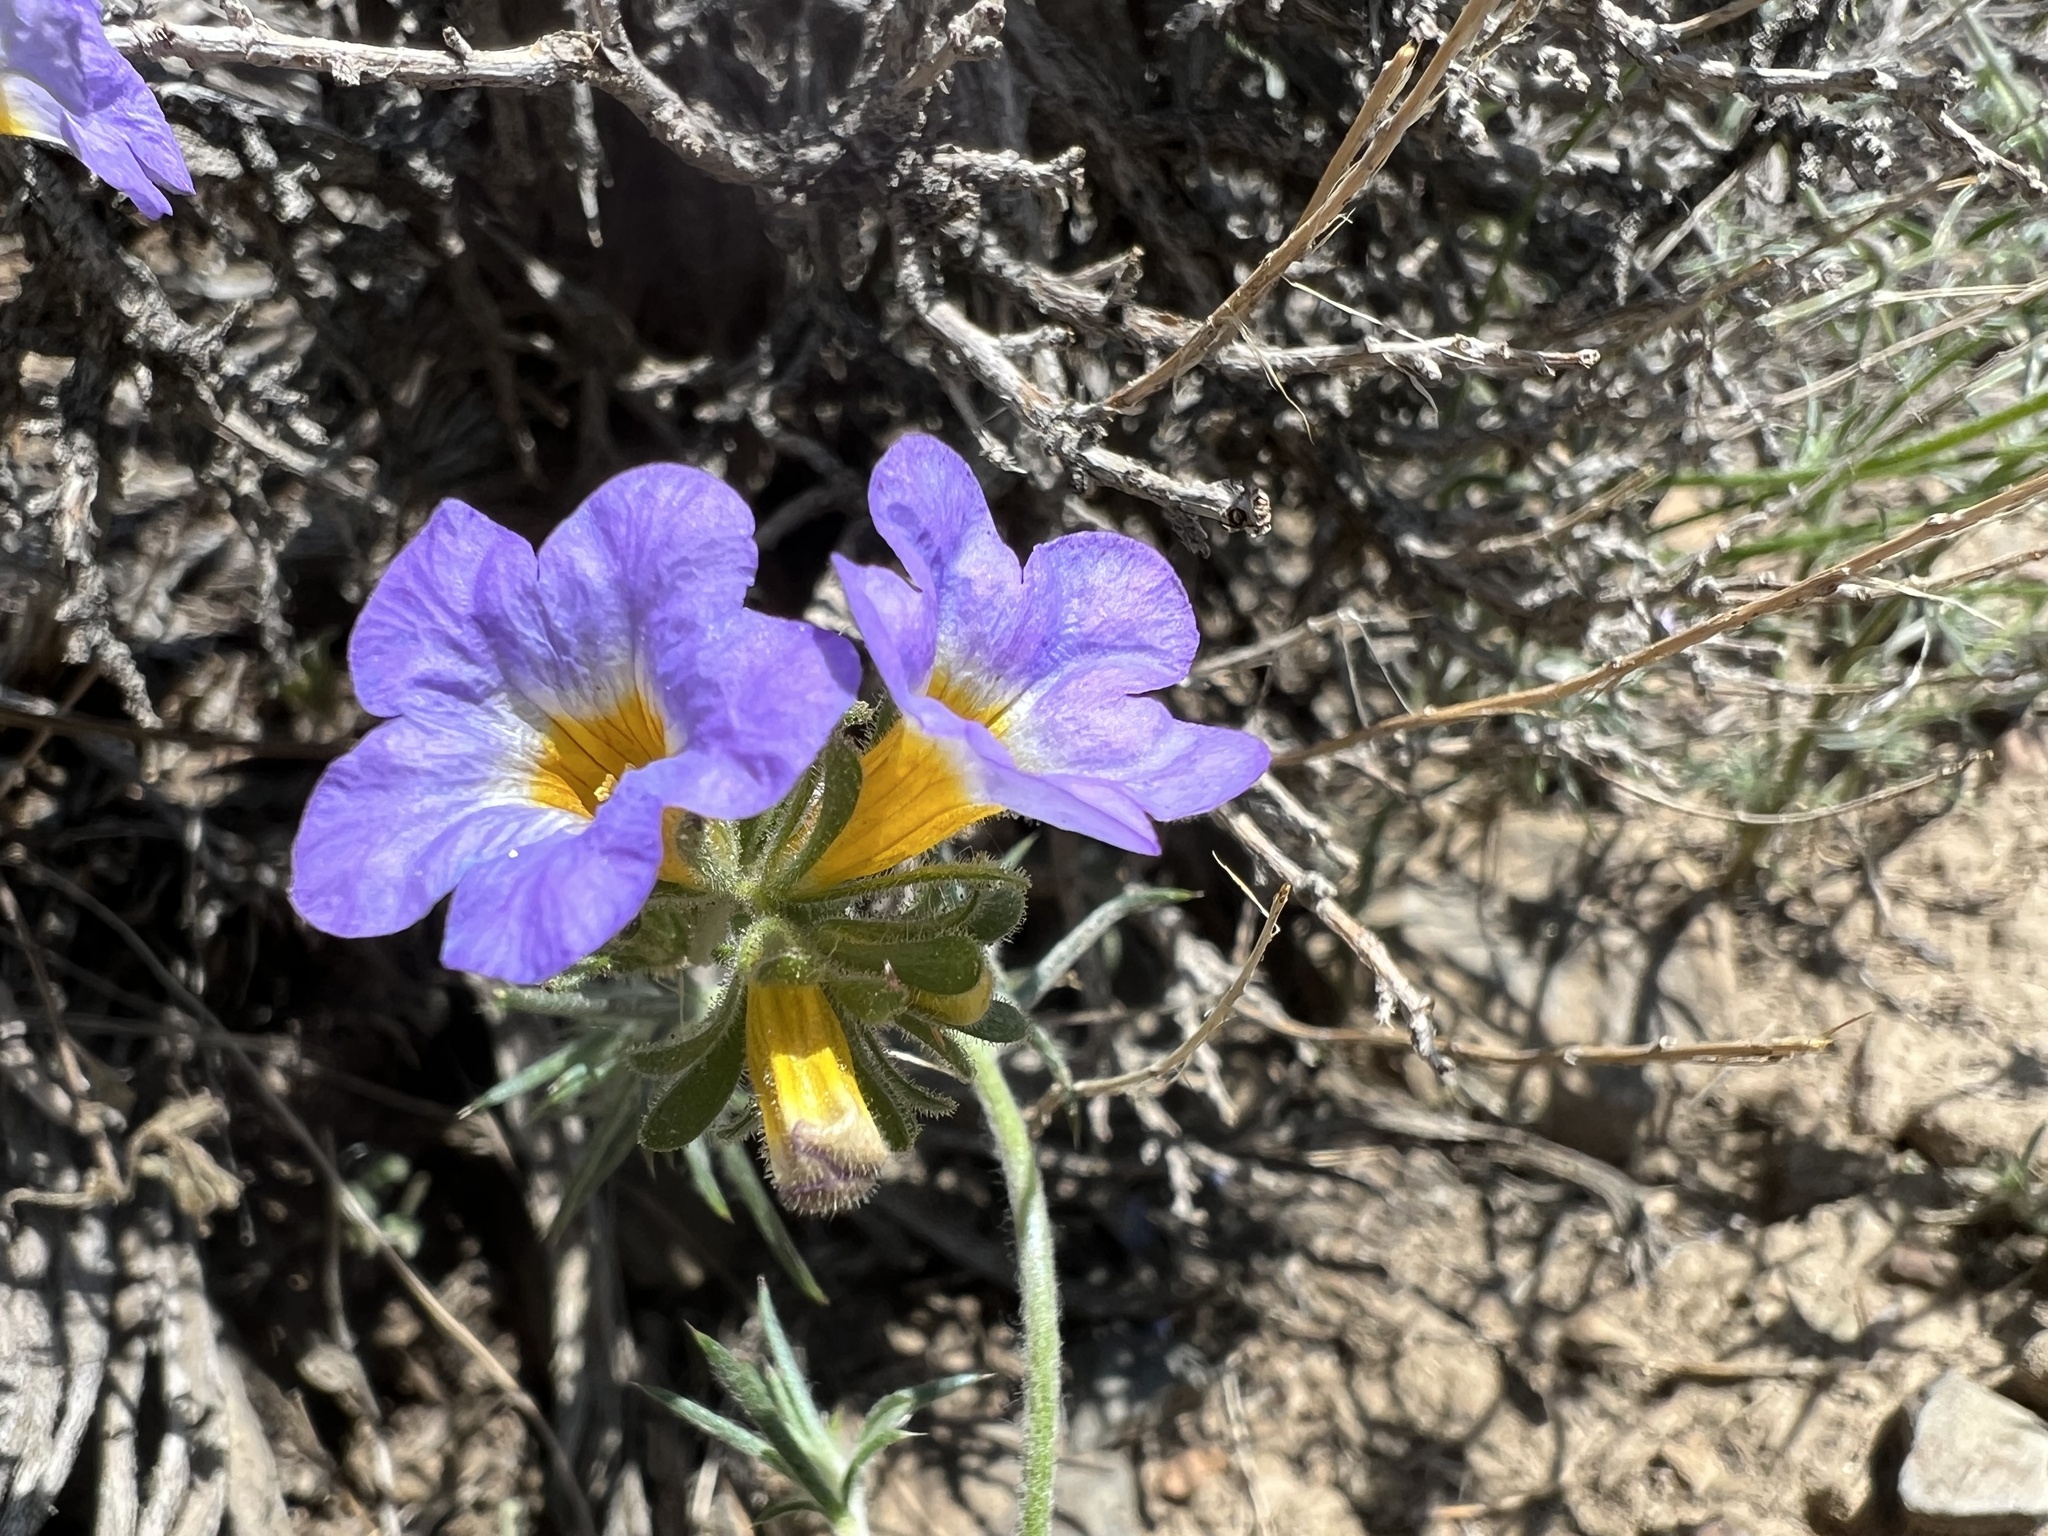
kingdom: Plantae
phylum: Tracheophyta
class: Magnoliopsida
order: Boraginales
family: Hydrophyllaceae
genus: Phacelia
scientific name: Phacelia fremontii
